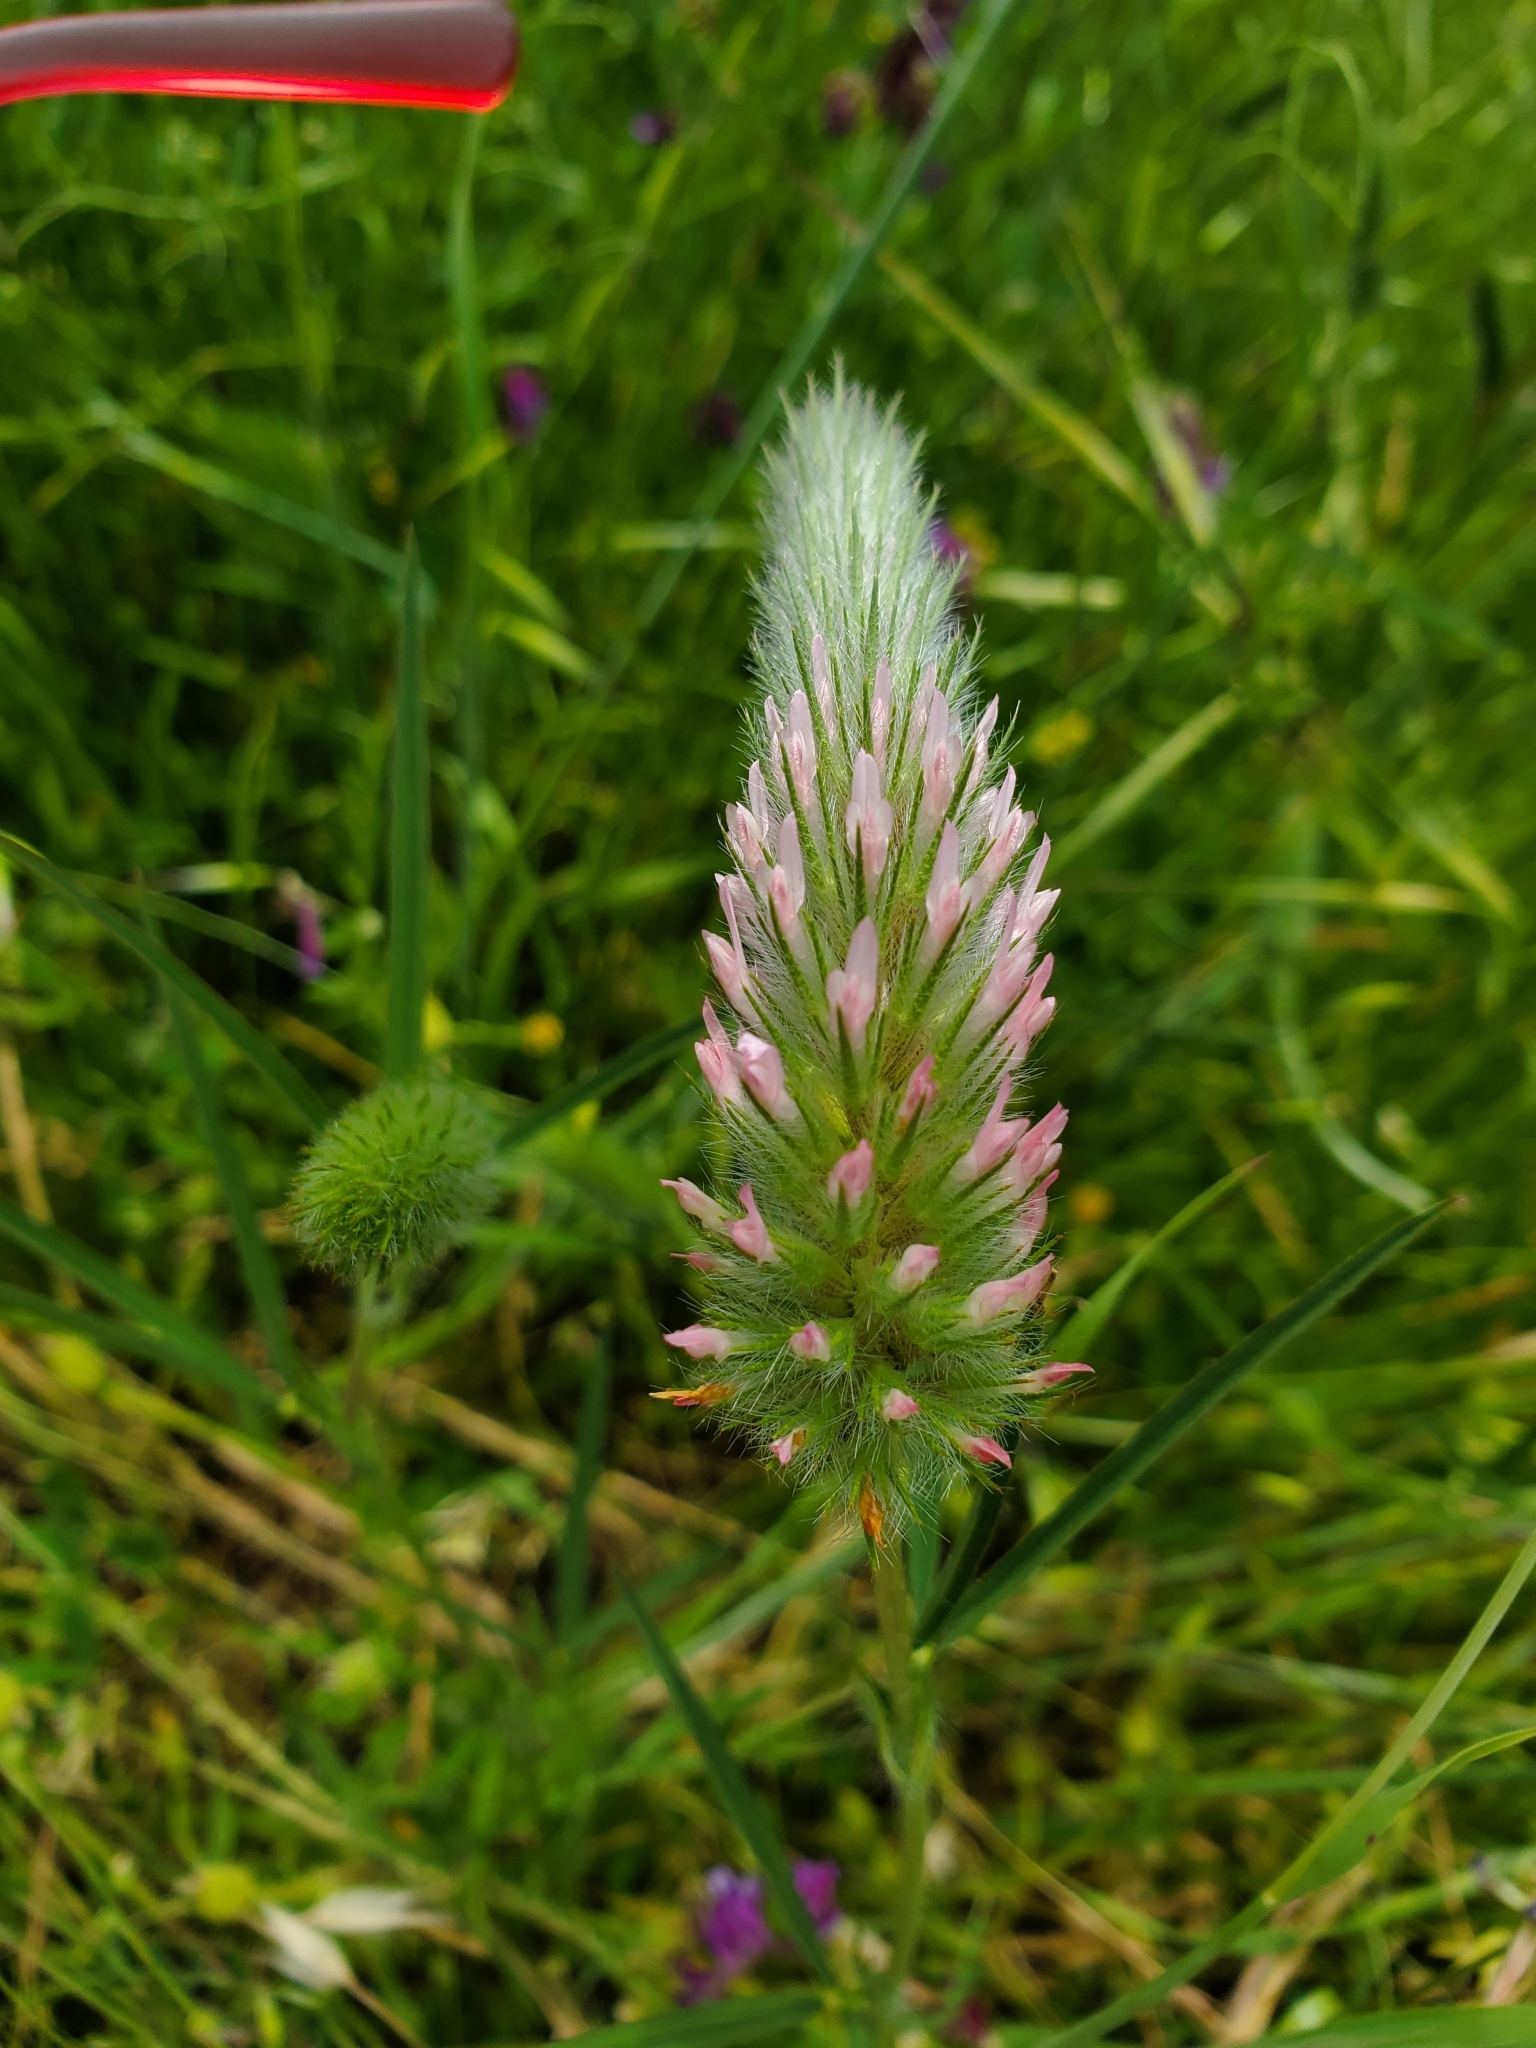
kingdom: Plantae
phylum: Tracheophyta
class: Magnoliopsida
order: Fabales
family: Fabaceae
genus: Trifolium
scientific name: Trifolium angustifolium
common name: Narrow clover
